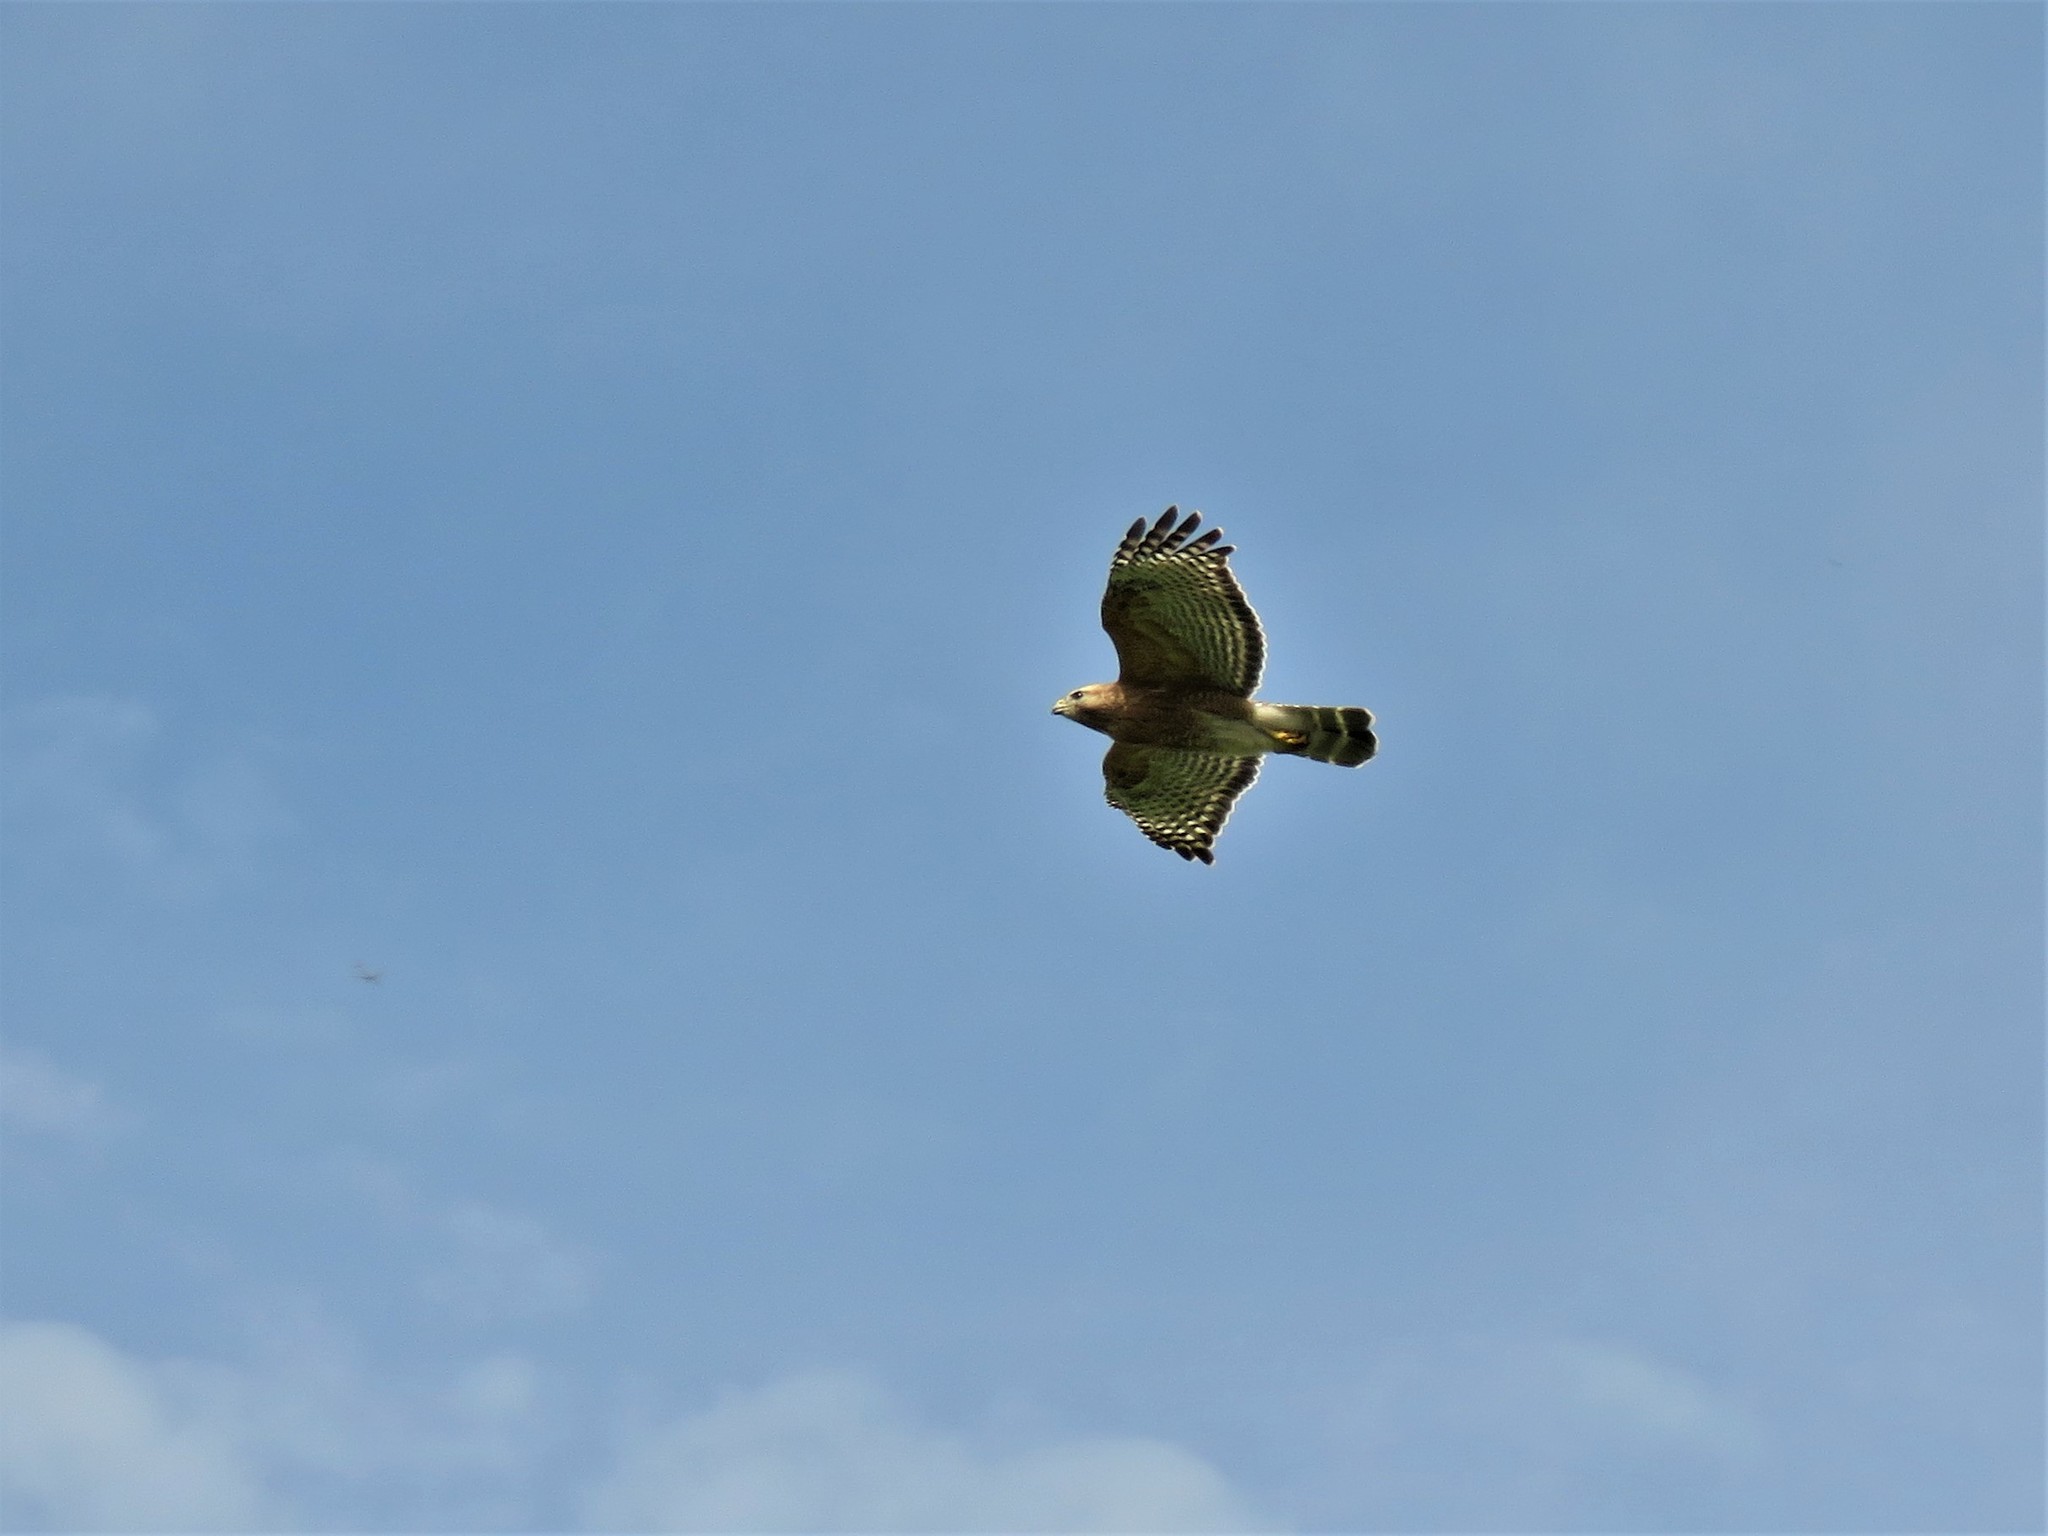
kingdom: Animalia
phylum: Chordata
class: Aves
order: Accipitriformes
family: Accipitridae
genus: Buteo
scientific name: Buteo lineatus
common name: Red-shouldered hawk
